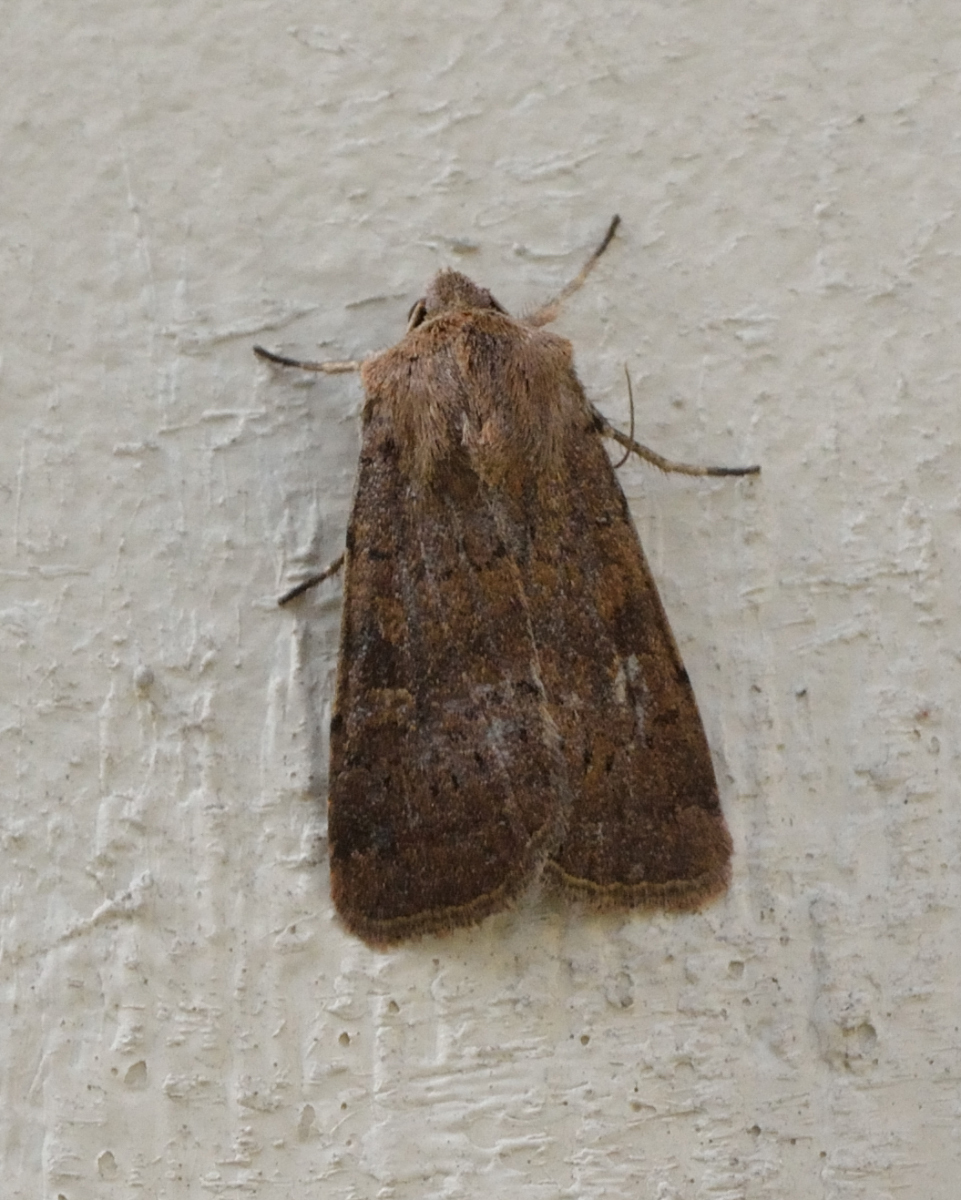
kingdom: Animalia
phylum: Arthropoda
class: Insecta
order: Lepidoptera
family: Noctuidae
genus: Xestia
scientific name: Xestia xanthographa
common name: Square-spot rustic
